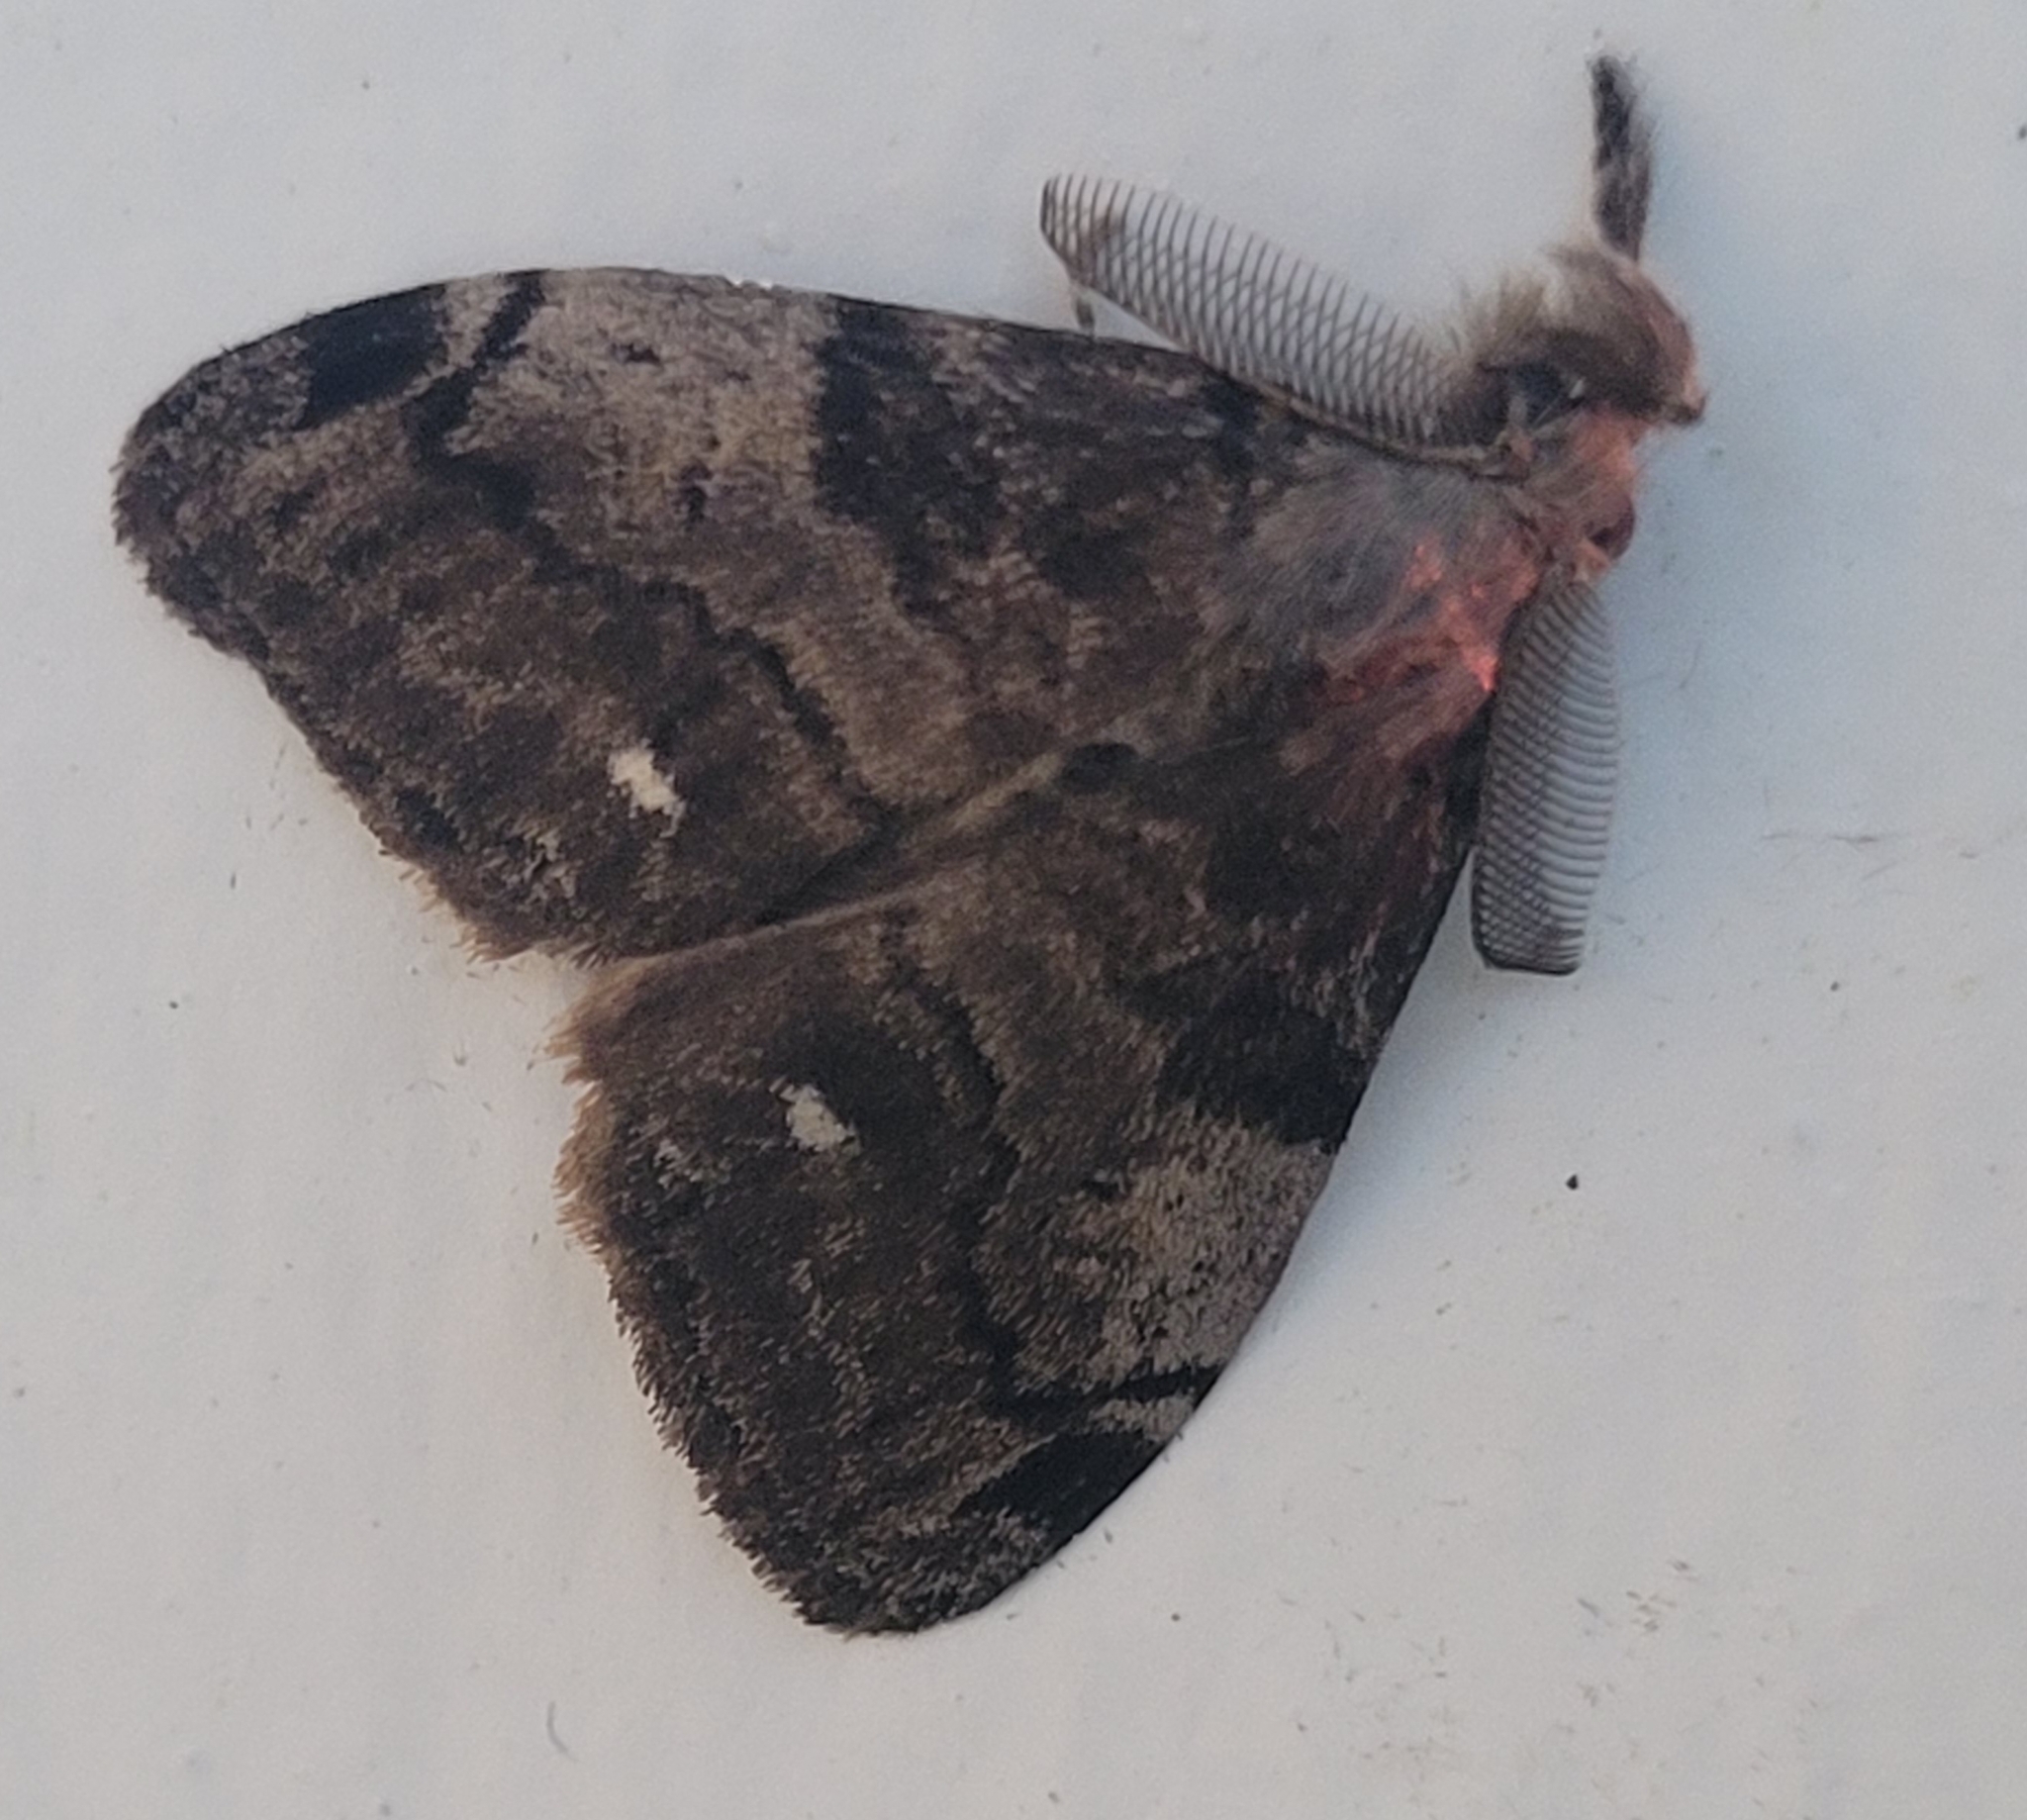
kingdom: Animalia
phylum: Arthropoda
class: Insecta
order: Lepidoptera
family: Erebidae
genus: Orgyia
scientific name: Orgyia leucostigma
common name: White-marked tussock moth
